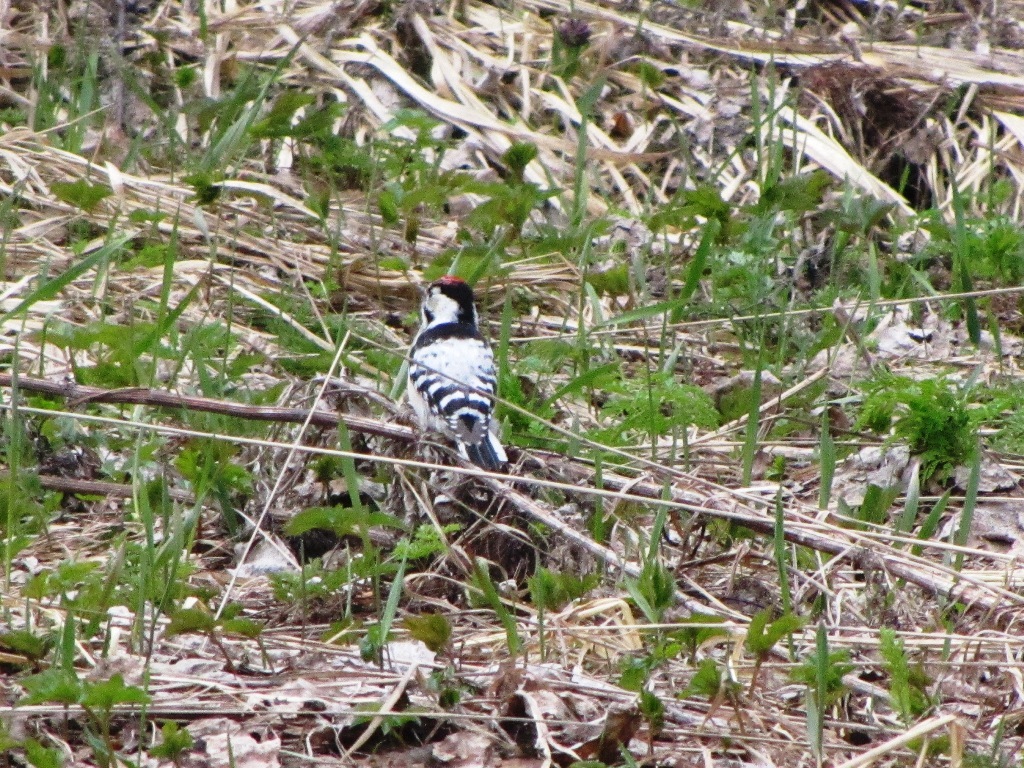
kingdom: Animalia
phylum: Chordata
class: Aves
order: Piciformes
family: Picidae
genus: Dryobates
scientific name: Dryobates minor
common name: Lesser spotted woodpecker
